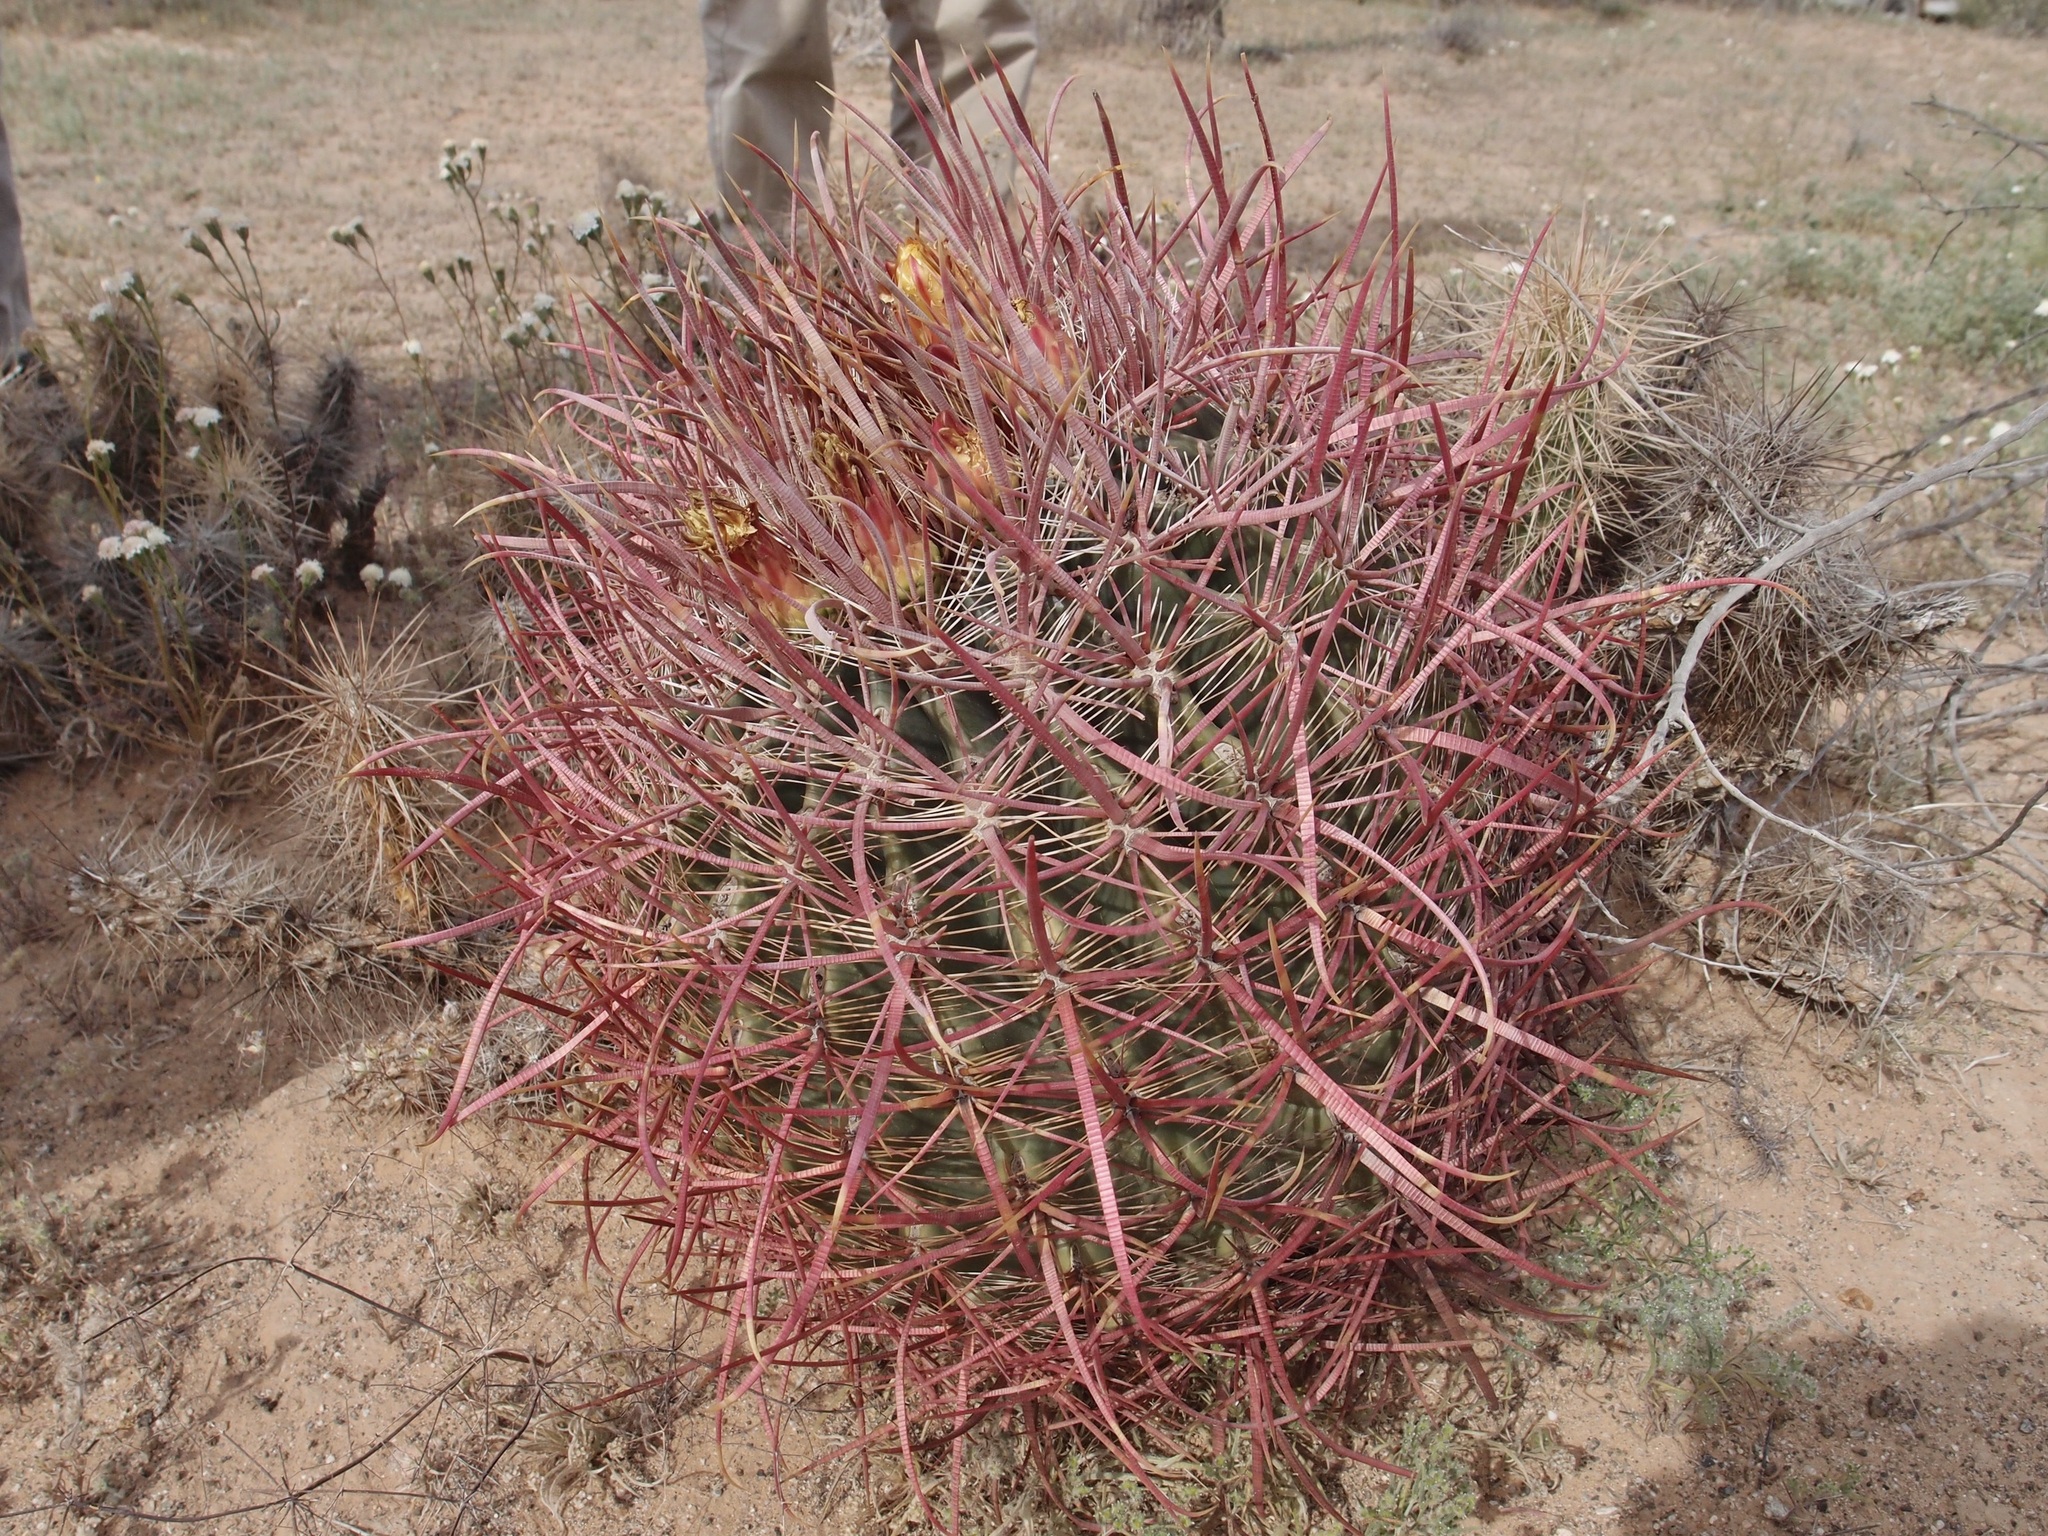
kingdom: Plantae
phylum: Tracheophyta
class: Magnoliopsida
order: Caryophyllales
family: Cactaceae
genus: Ferocactus
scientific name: Ferocactus cylindraceus
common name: California barrel cactus
